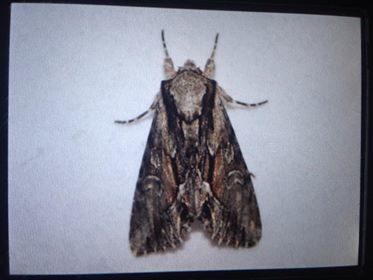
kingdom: Animalia
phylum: Arthropoda
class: Insecta
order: Lepidoptera
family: Noctuidae
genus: Hyppa
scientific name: Hyppa xylinoides
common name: Common hyppa moth
